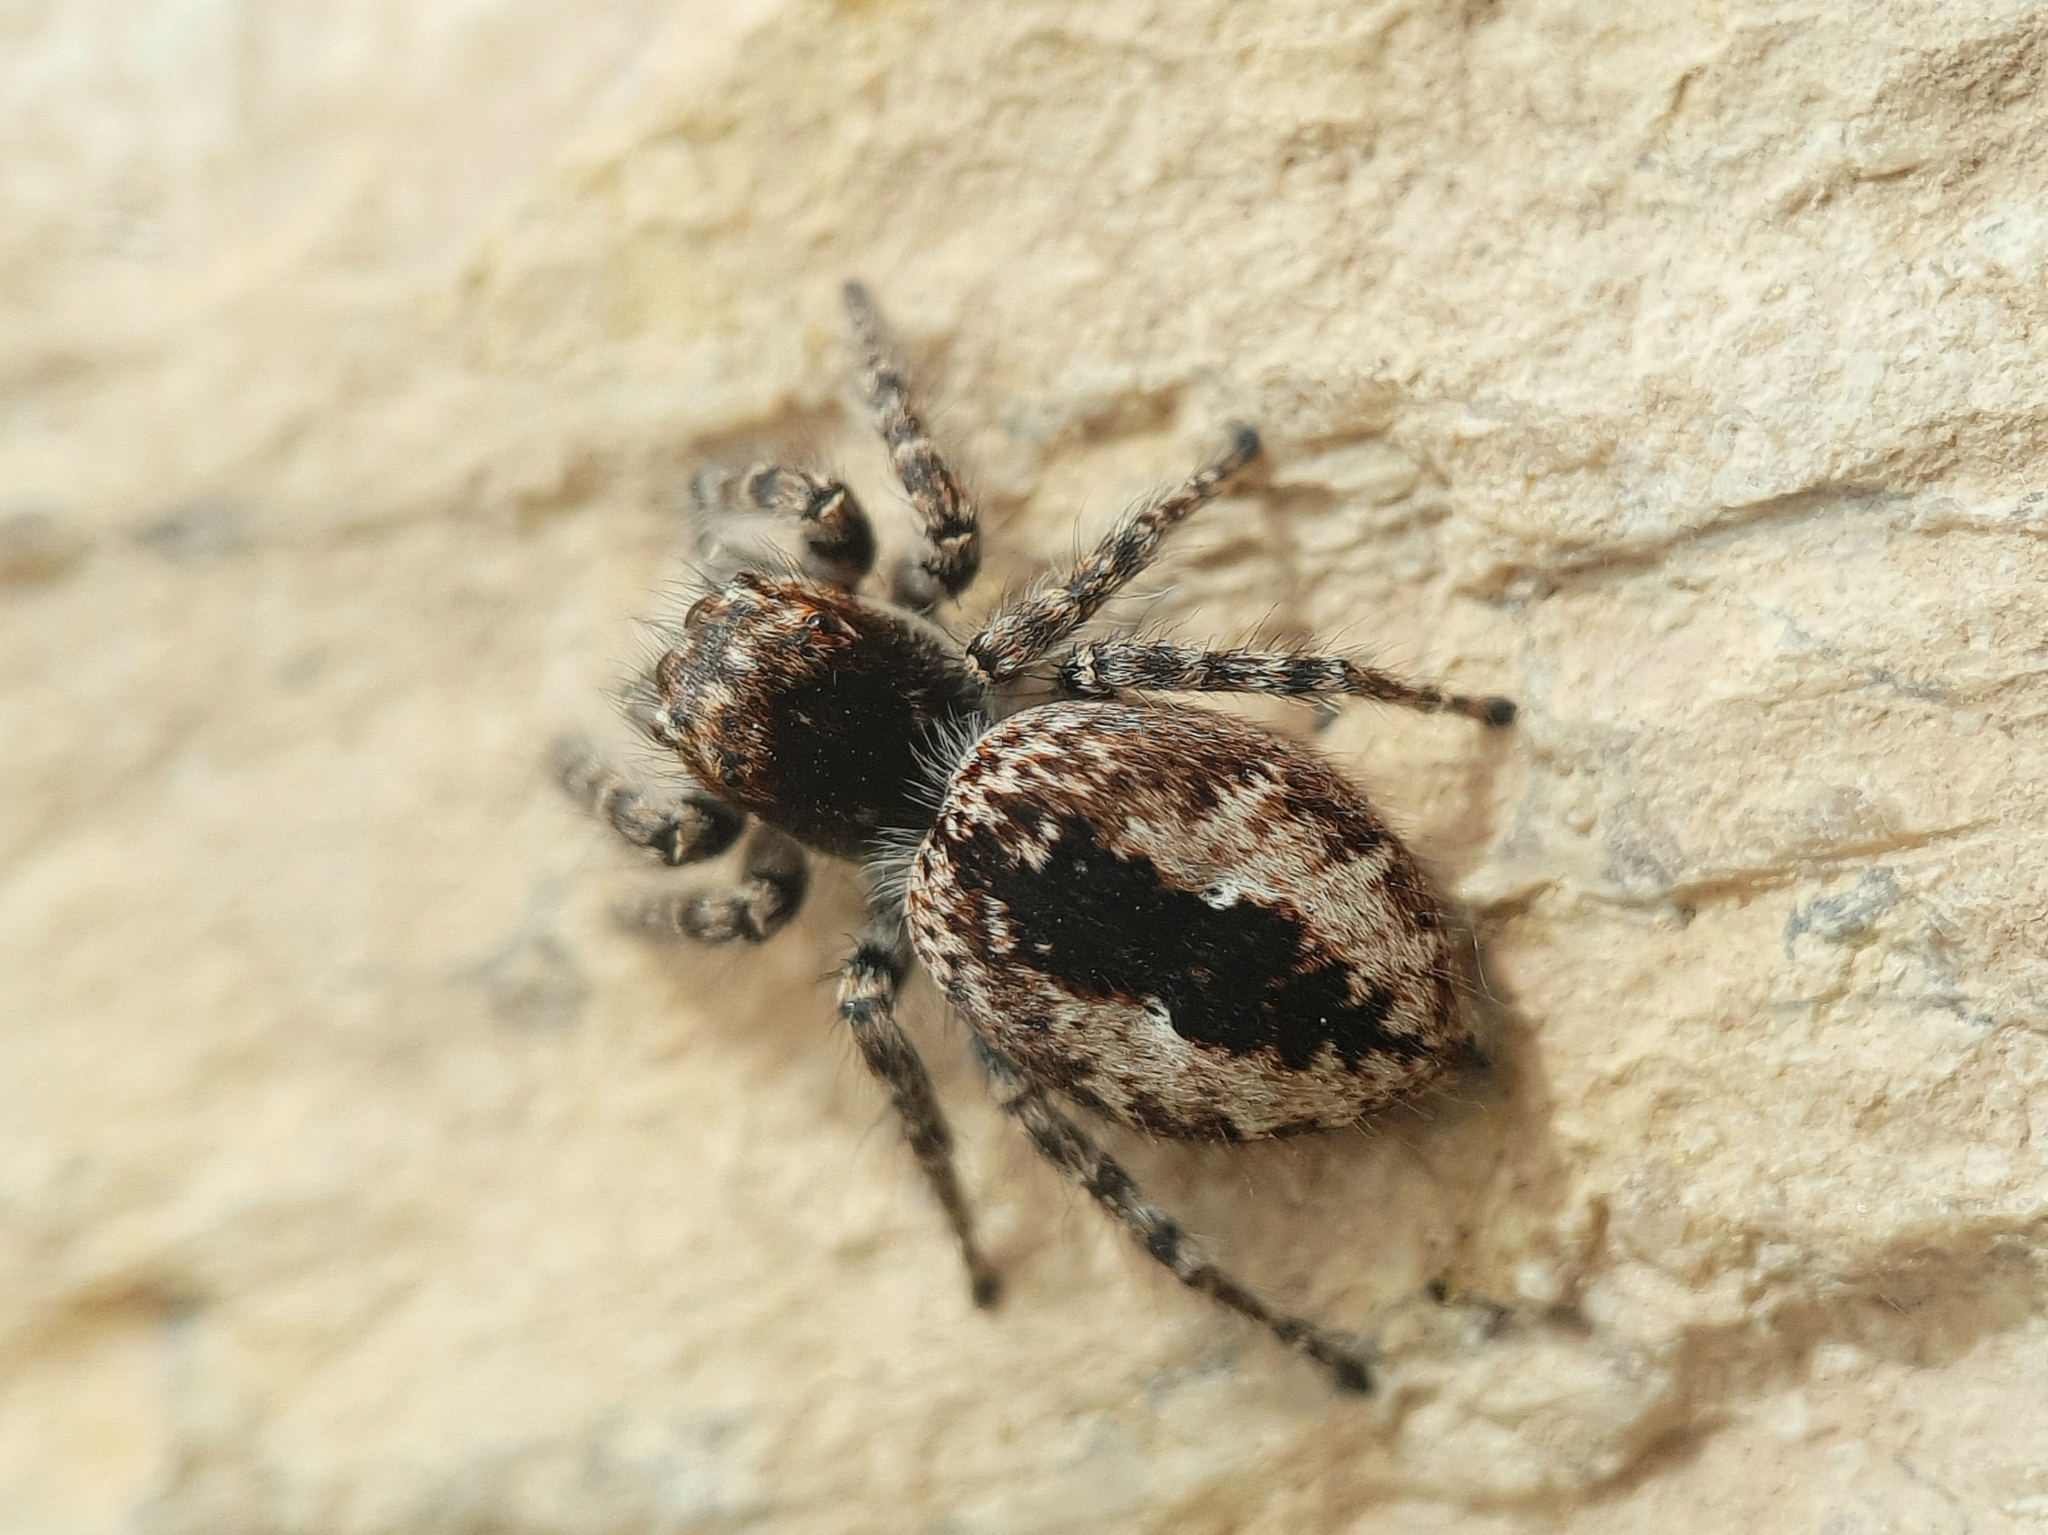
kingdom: Animalia
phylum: Arthropoda
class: Arachnida
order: Araneae
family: Salticidae
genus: Philaeus
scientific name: Philaeus chrysops
